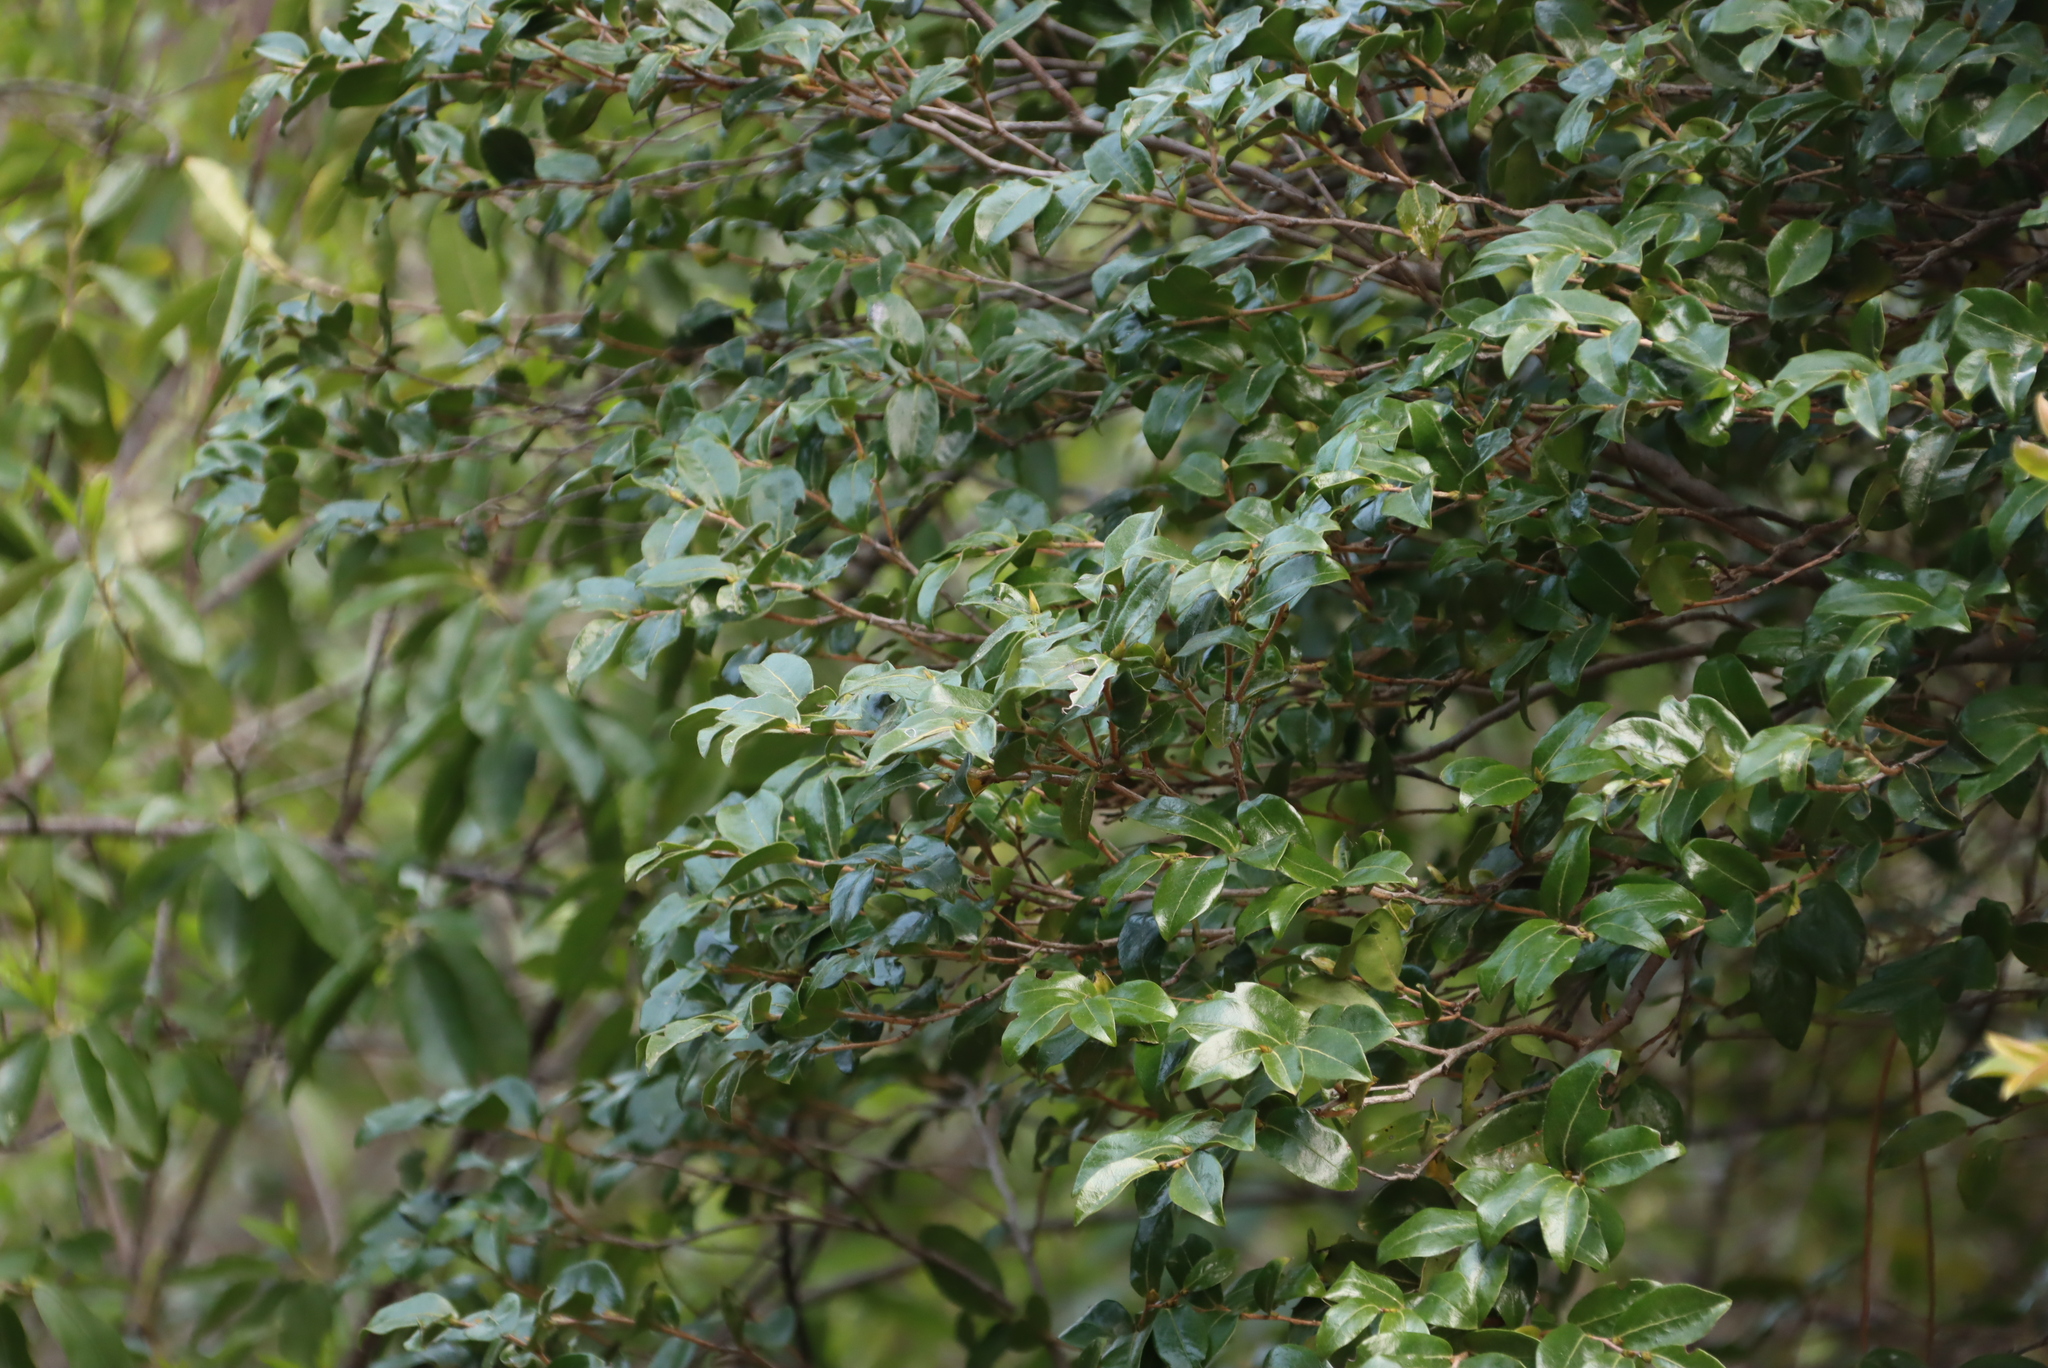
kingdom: Plantae
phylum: Tracheophyta
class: Magnoliopsida
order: Ericales
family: Ebenaceae
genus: Diospyros
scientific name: Diospyros whyteana
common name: Bladder-nut
